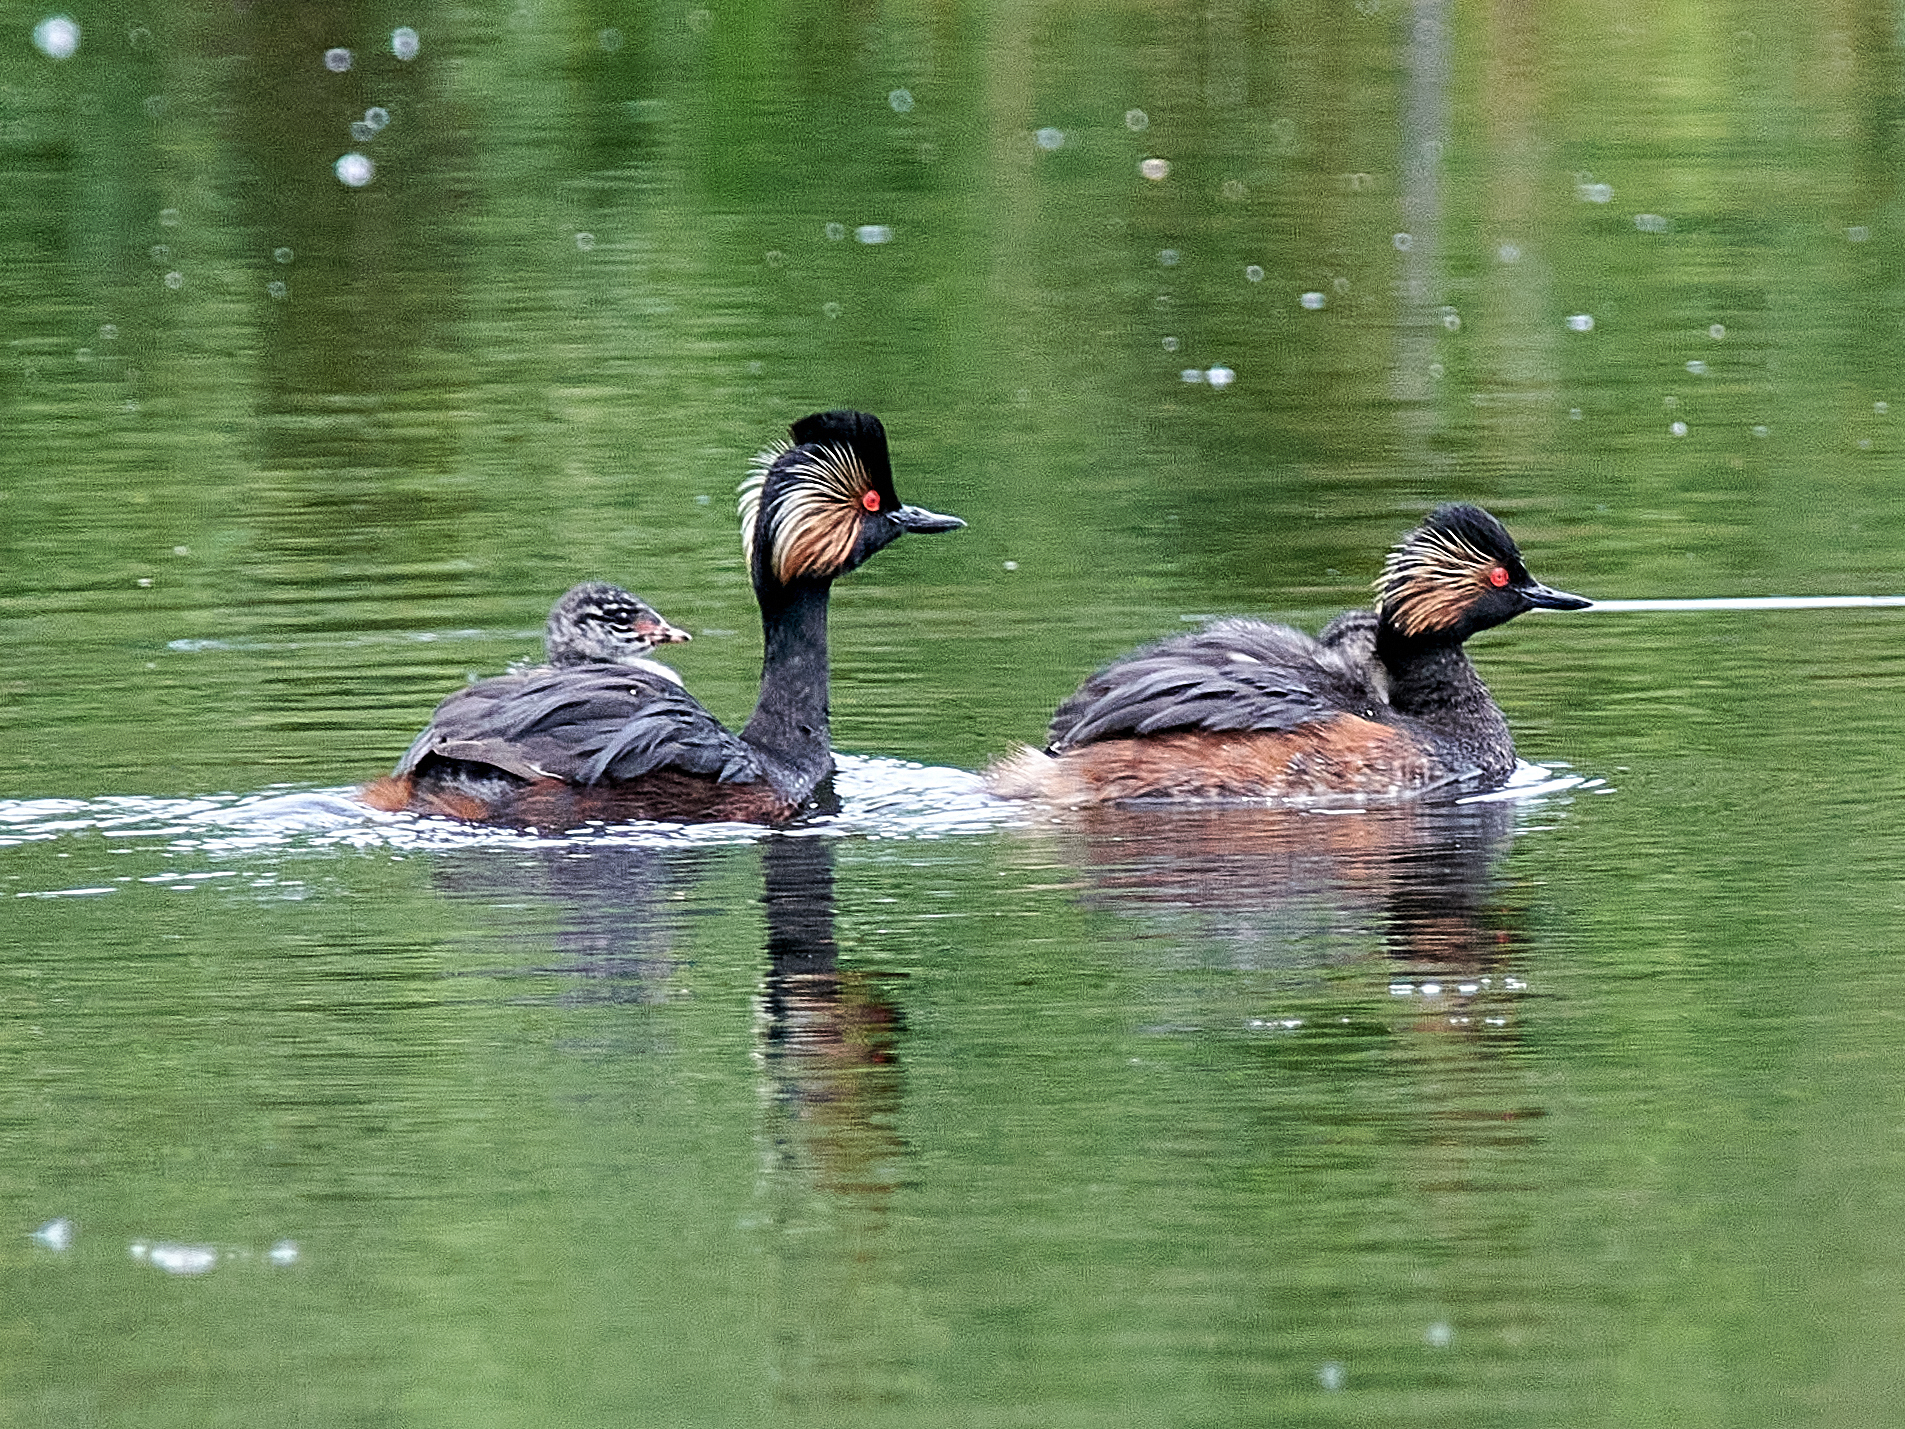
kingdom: Animalia
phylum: Chordata
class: Aves
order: Podicipediformes
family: Podicipedidae
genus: Podiceps
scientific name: Podiceps nigricollis
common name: Black-necked grebe
